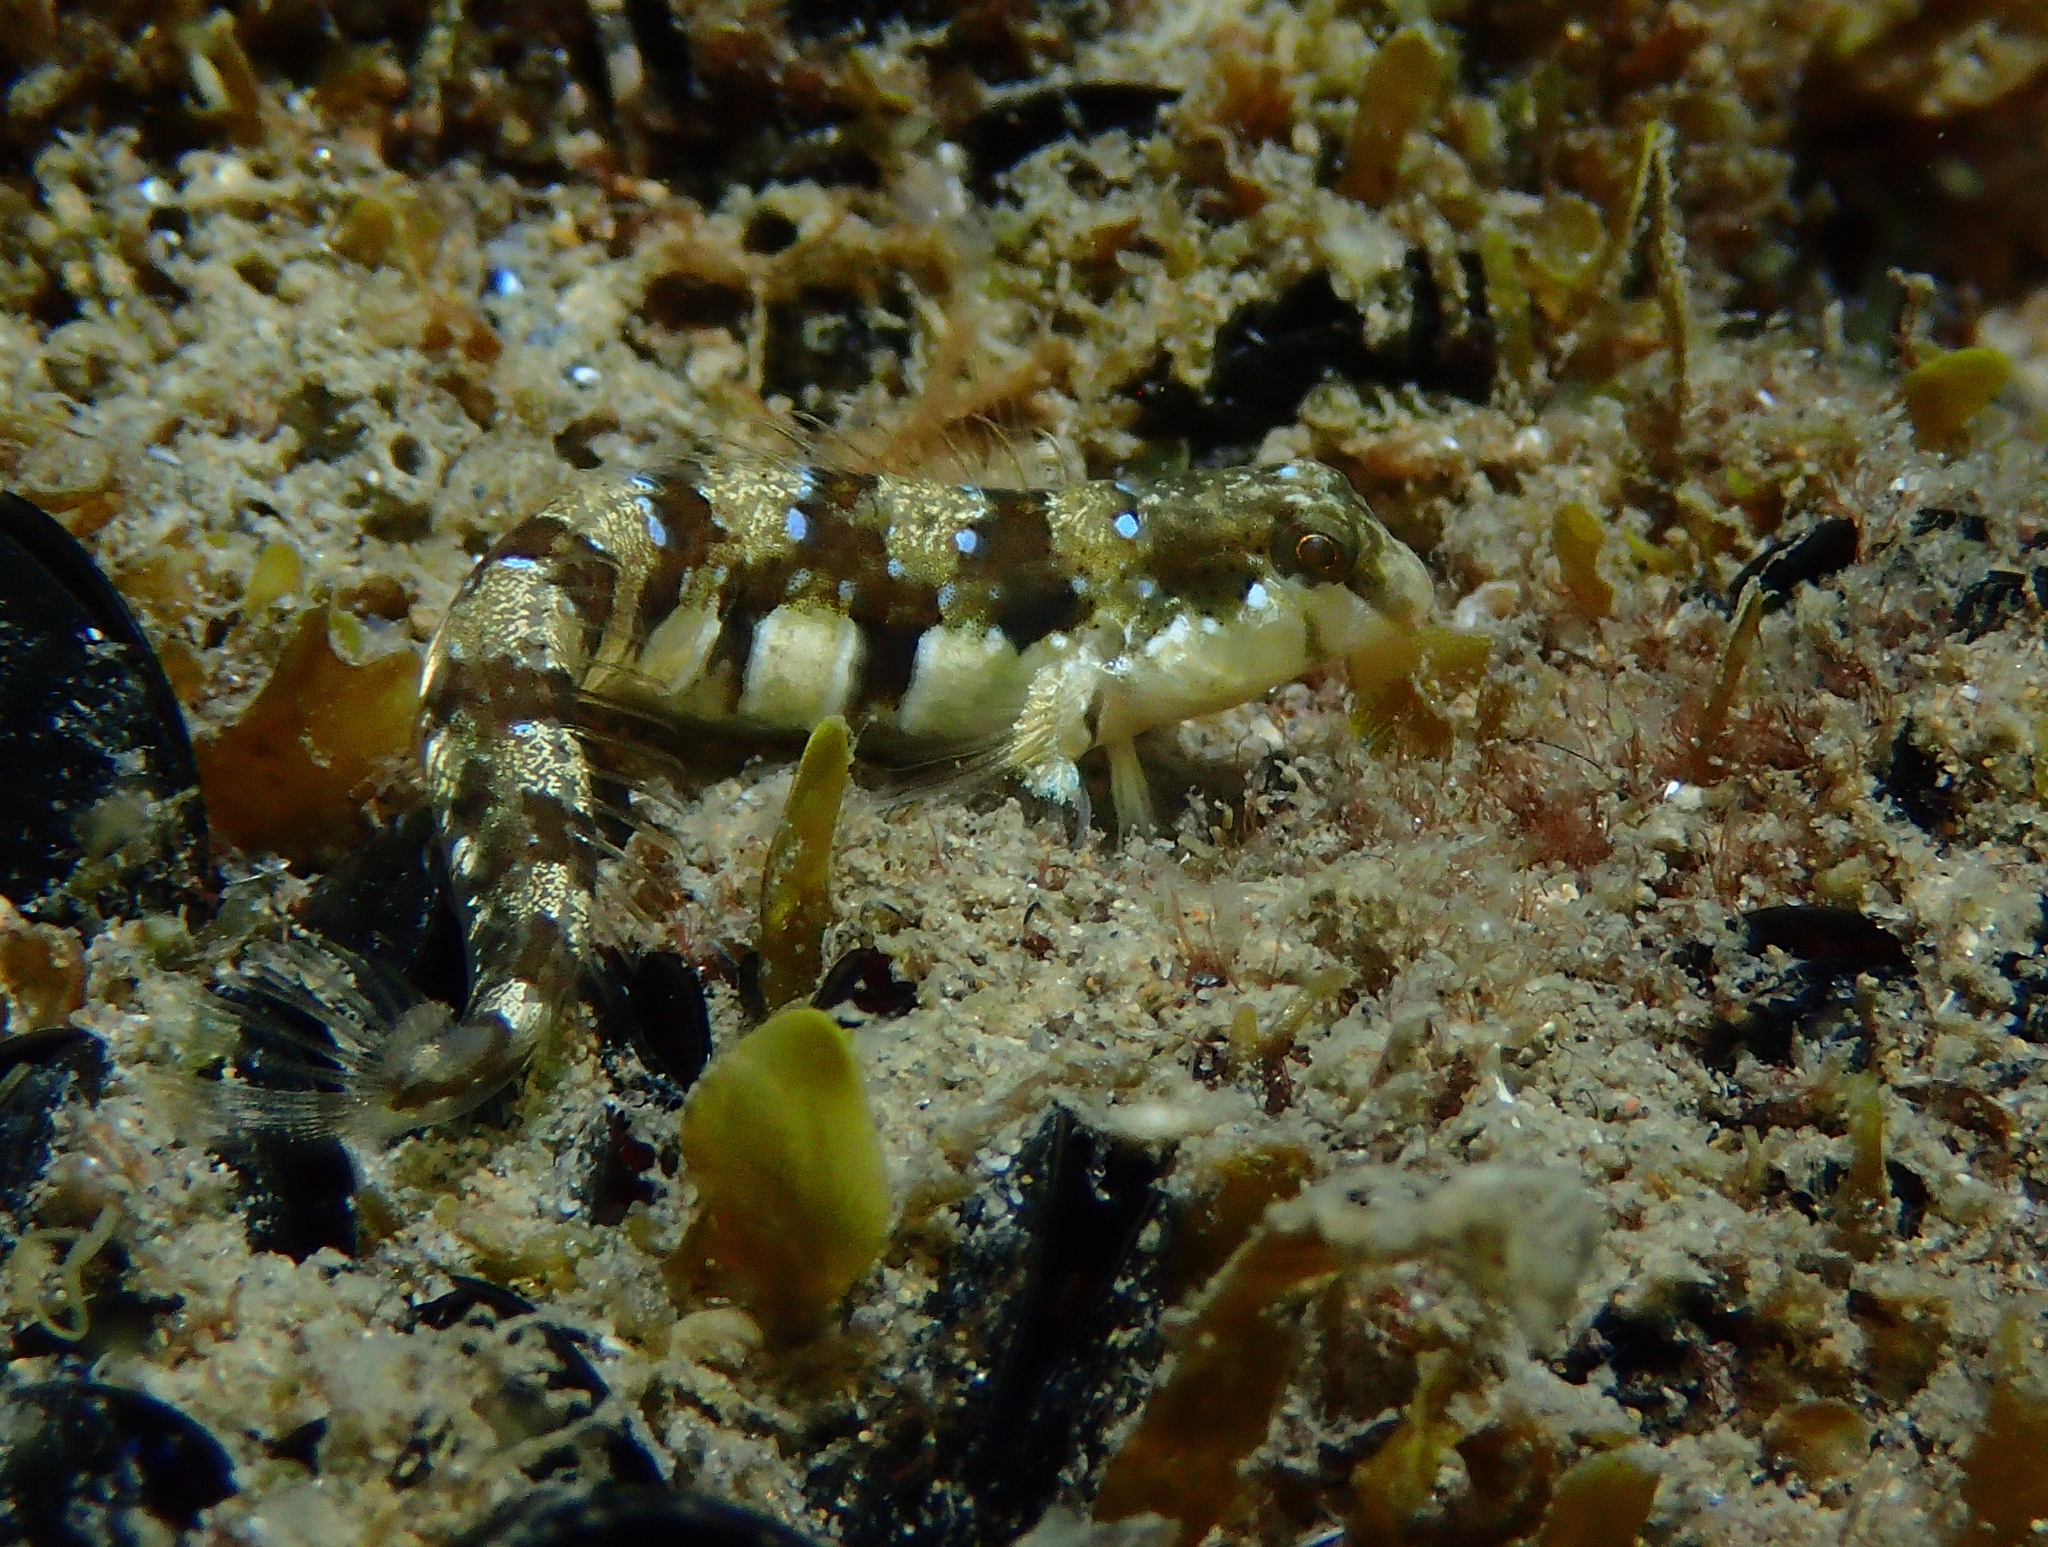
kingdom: Animalia
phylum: Chordata
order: Perciformes
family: Blenniidae
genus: Microlipophrys
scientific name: Microlipophrys dalmatinus
